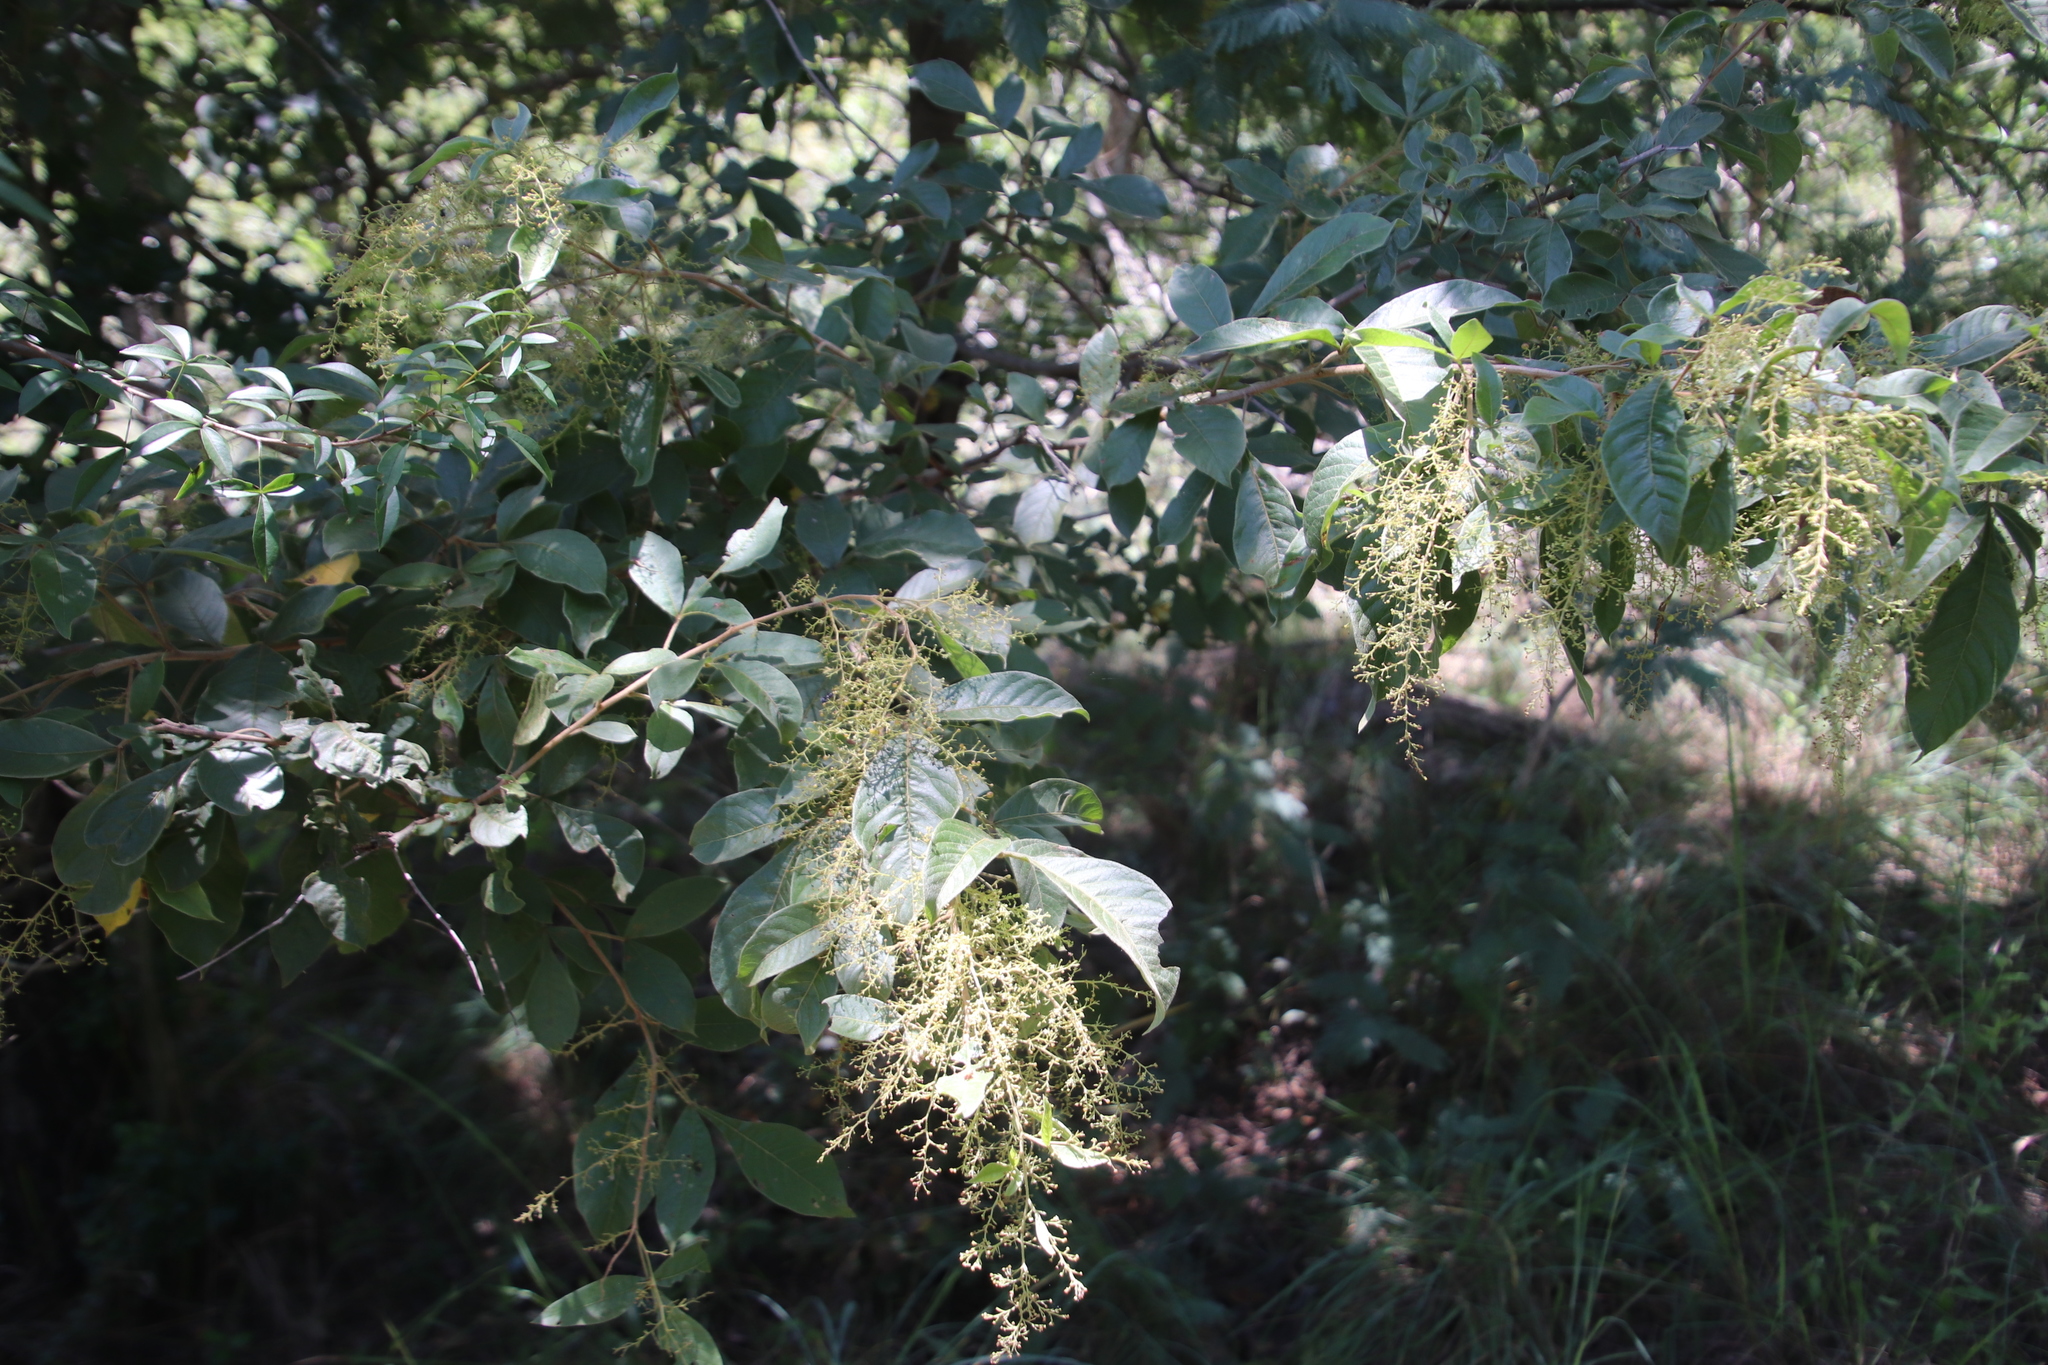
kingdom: Plantae
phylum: Tracheophyta
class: Magnoliopsida
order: Sapindales
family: Anacardiaceae
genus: Searsia
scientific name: Searsia pyroides
